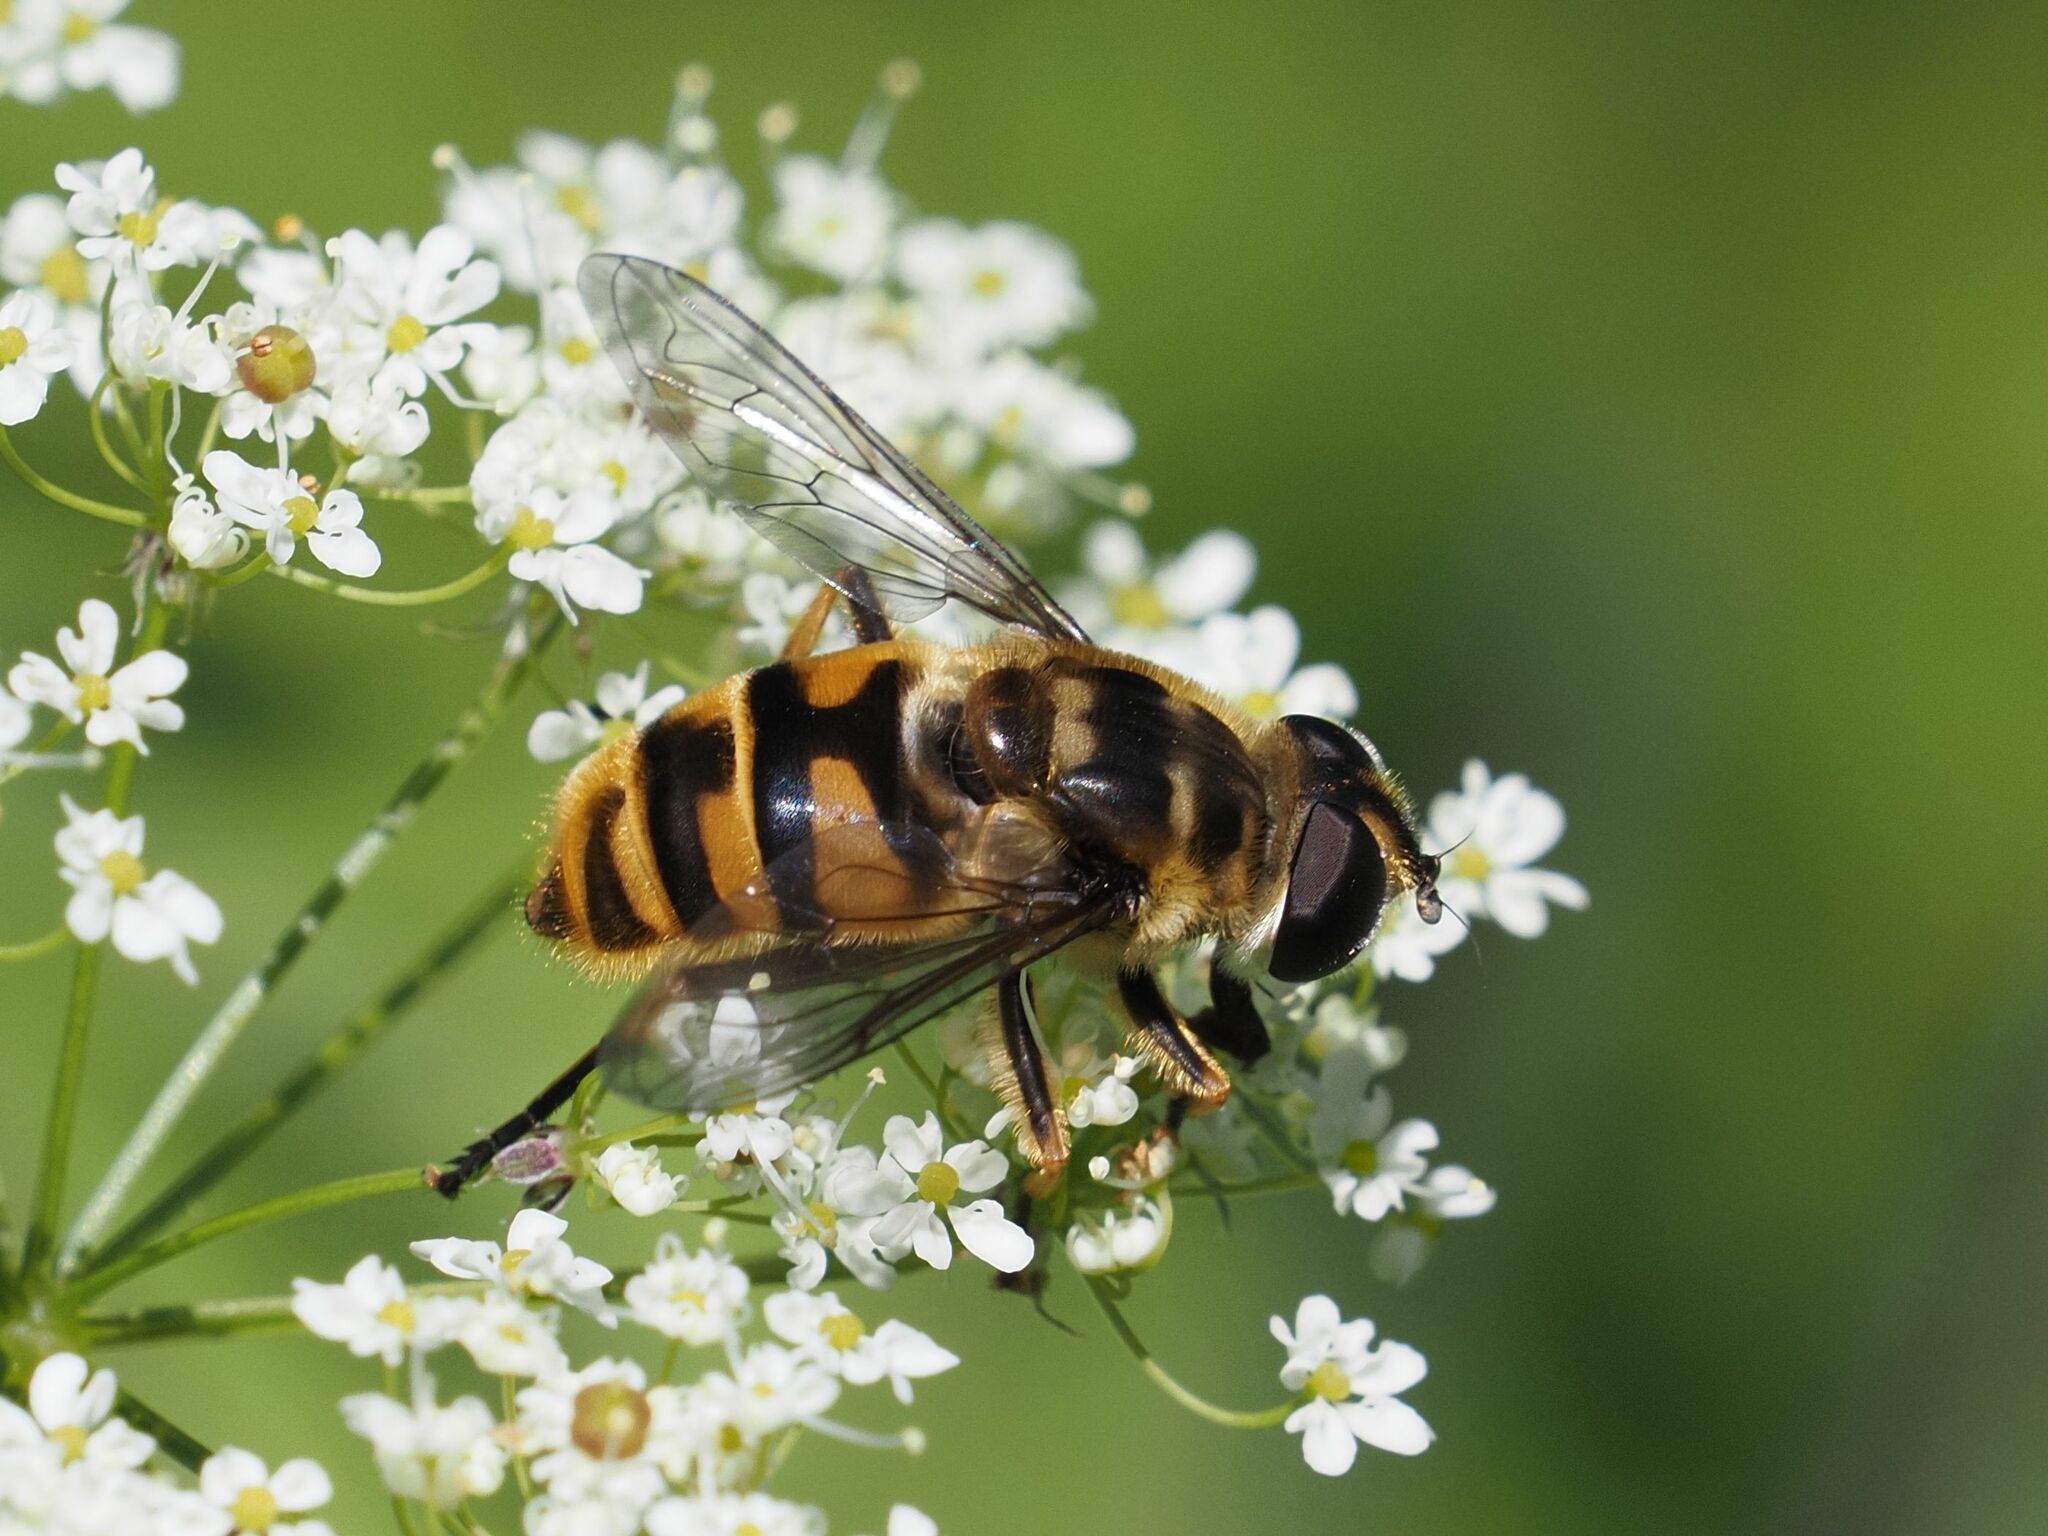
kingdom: Animalia
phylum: Arthropoda
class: Insecta
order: Diptera
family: Syrphidae
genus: Myathropa
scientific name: Myathropa florea
